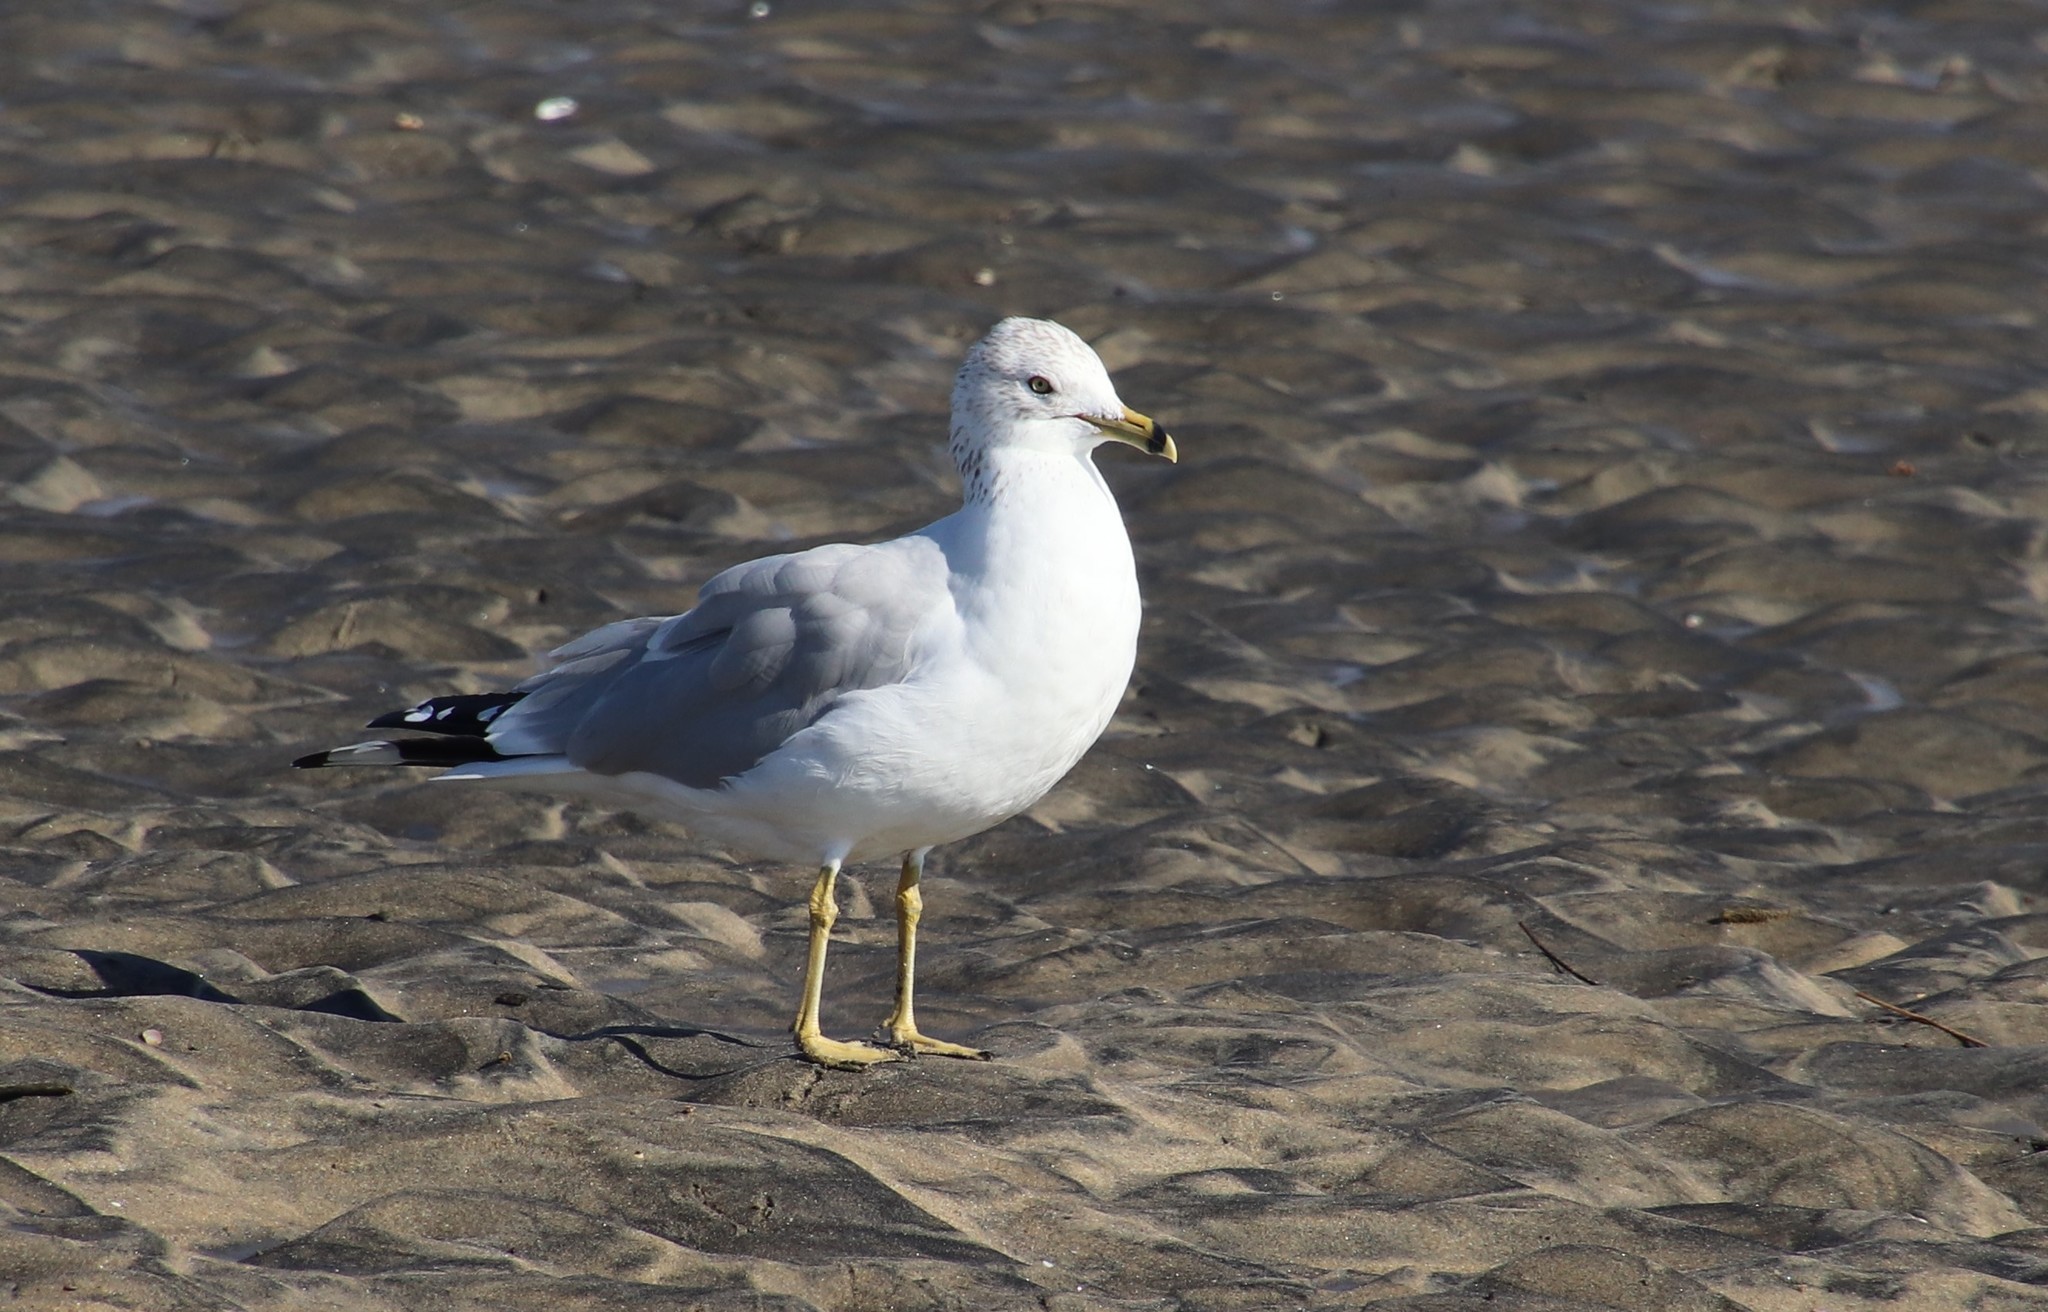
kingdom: Animalia
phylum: Chordata
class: Aves
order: Charadriiformes
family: Laridae
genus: Larus
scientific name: Larus delawarensis
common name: Ring-billed gull
